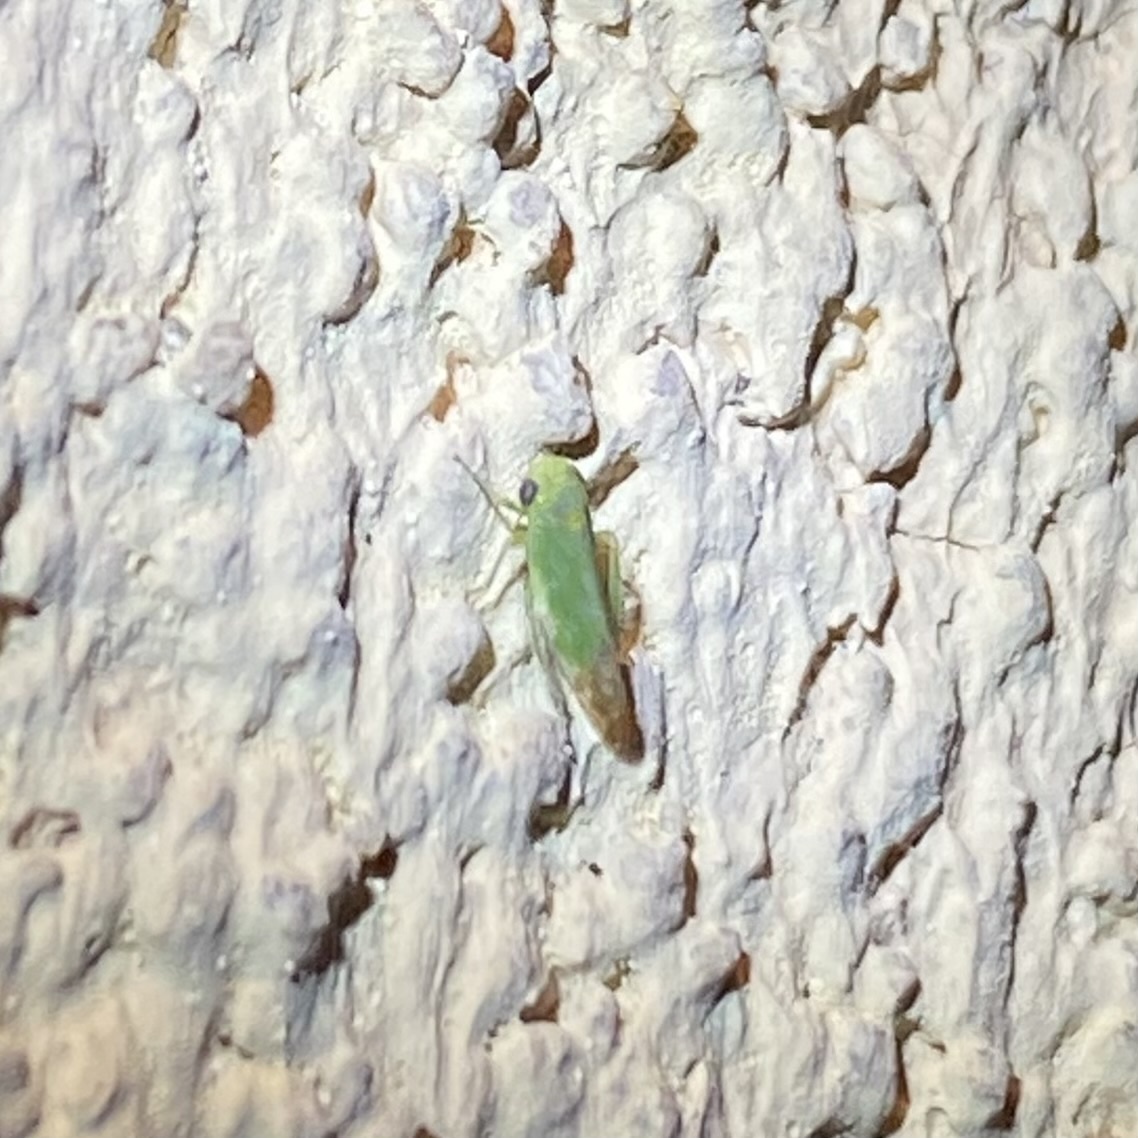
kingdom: Animalia
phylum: Arthropoda
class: Insecta
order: Hemiptera
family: Cicadellidae
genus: Opsius
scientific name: Opsius stactogalus
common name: Leafhopper
